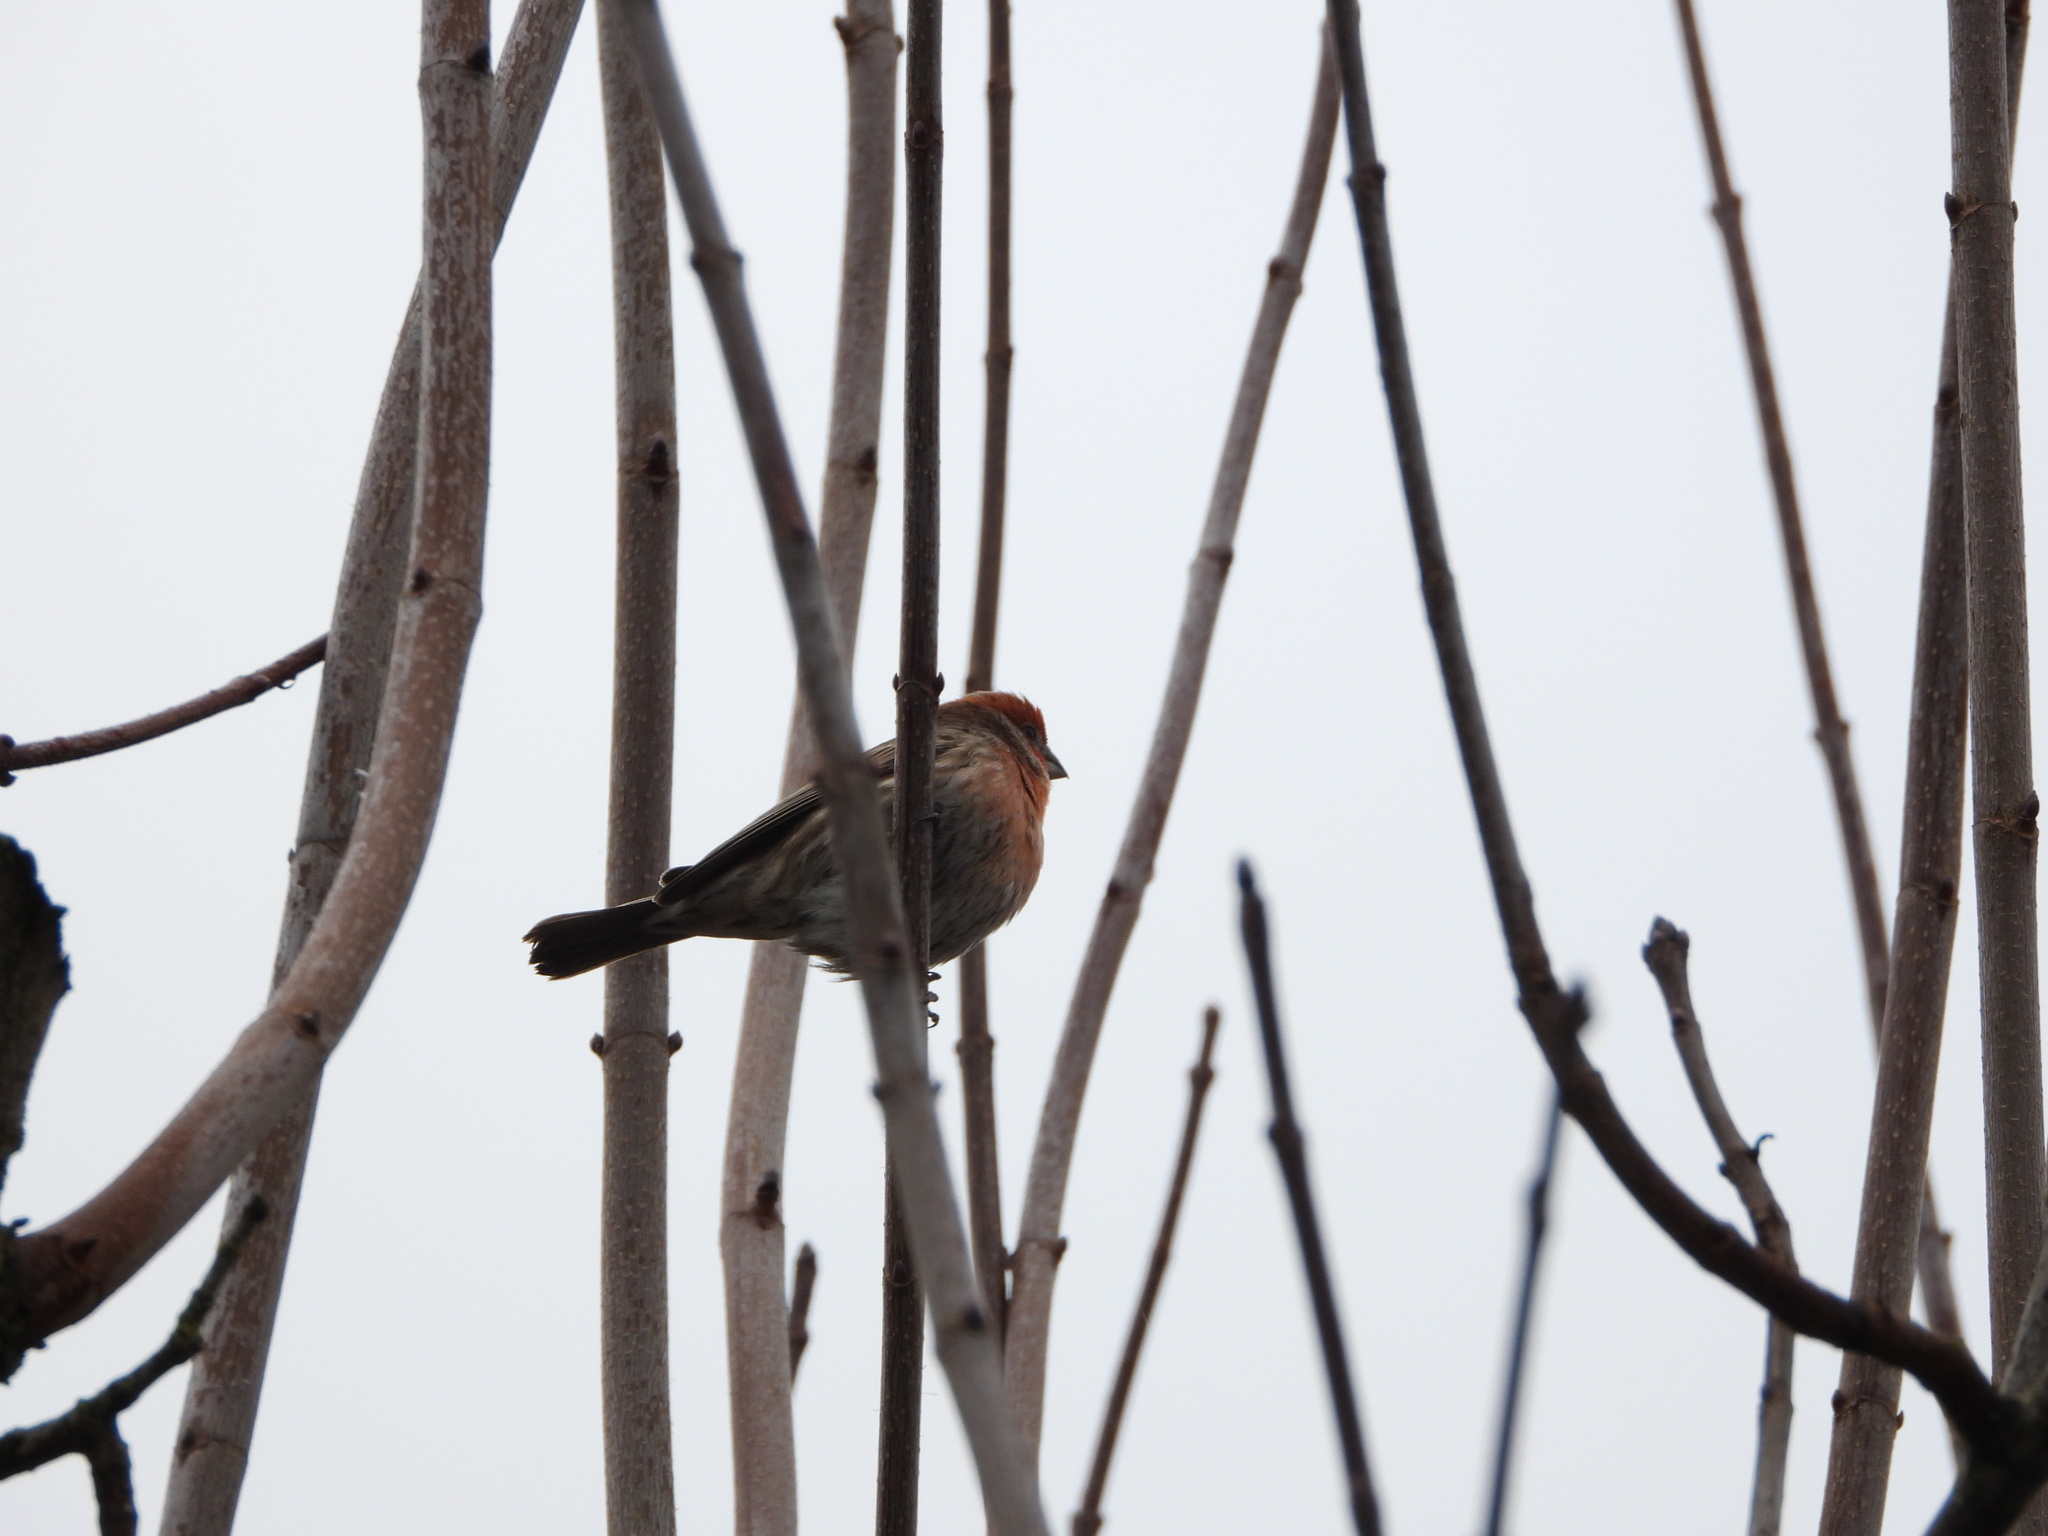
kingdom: Animalia
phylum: Chordata
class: Aves
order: Passeriformes
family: Fringillidae
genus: Haemorhous
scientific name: Haemorhous mexicanus
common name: House finch
